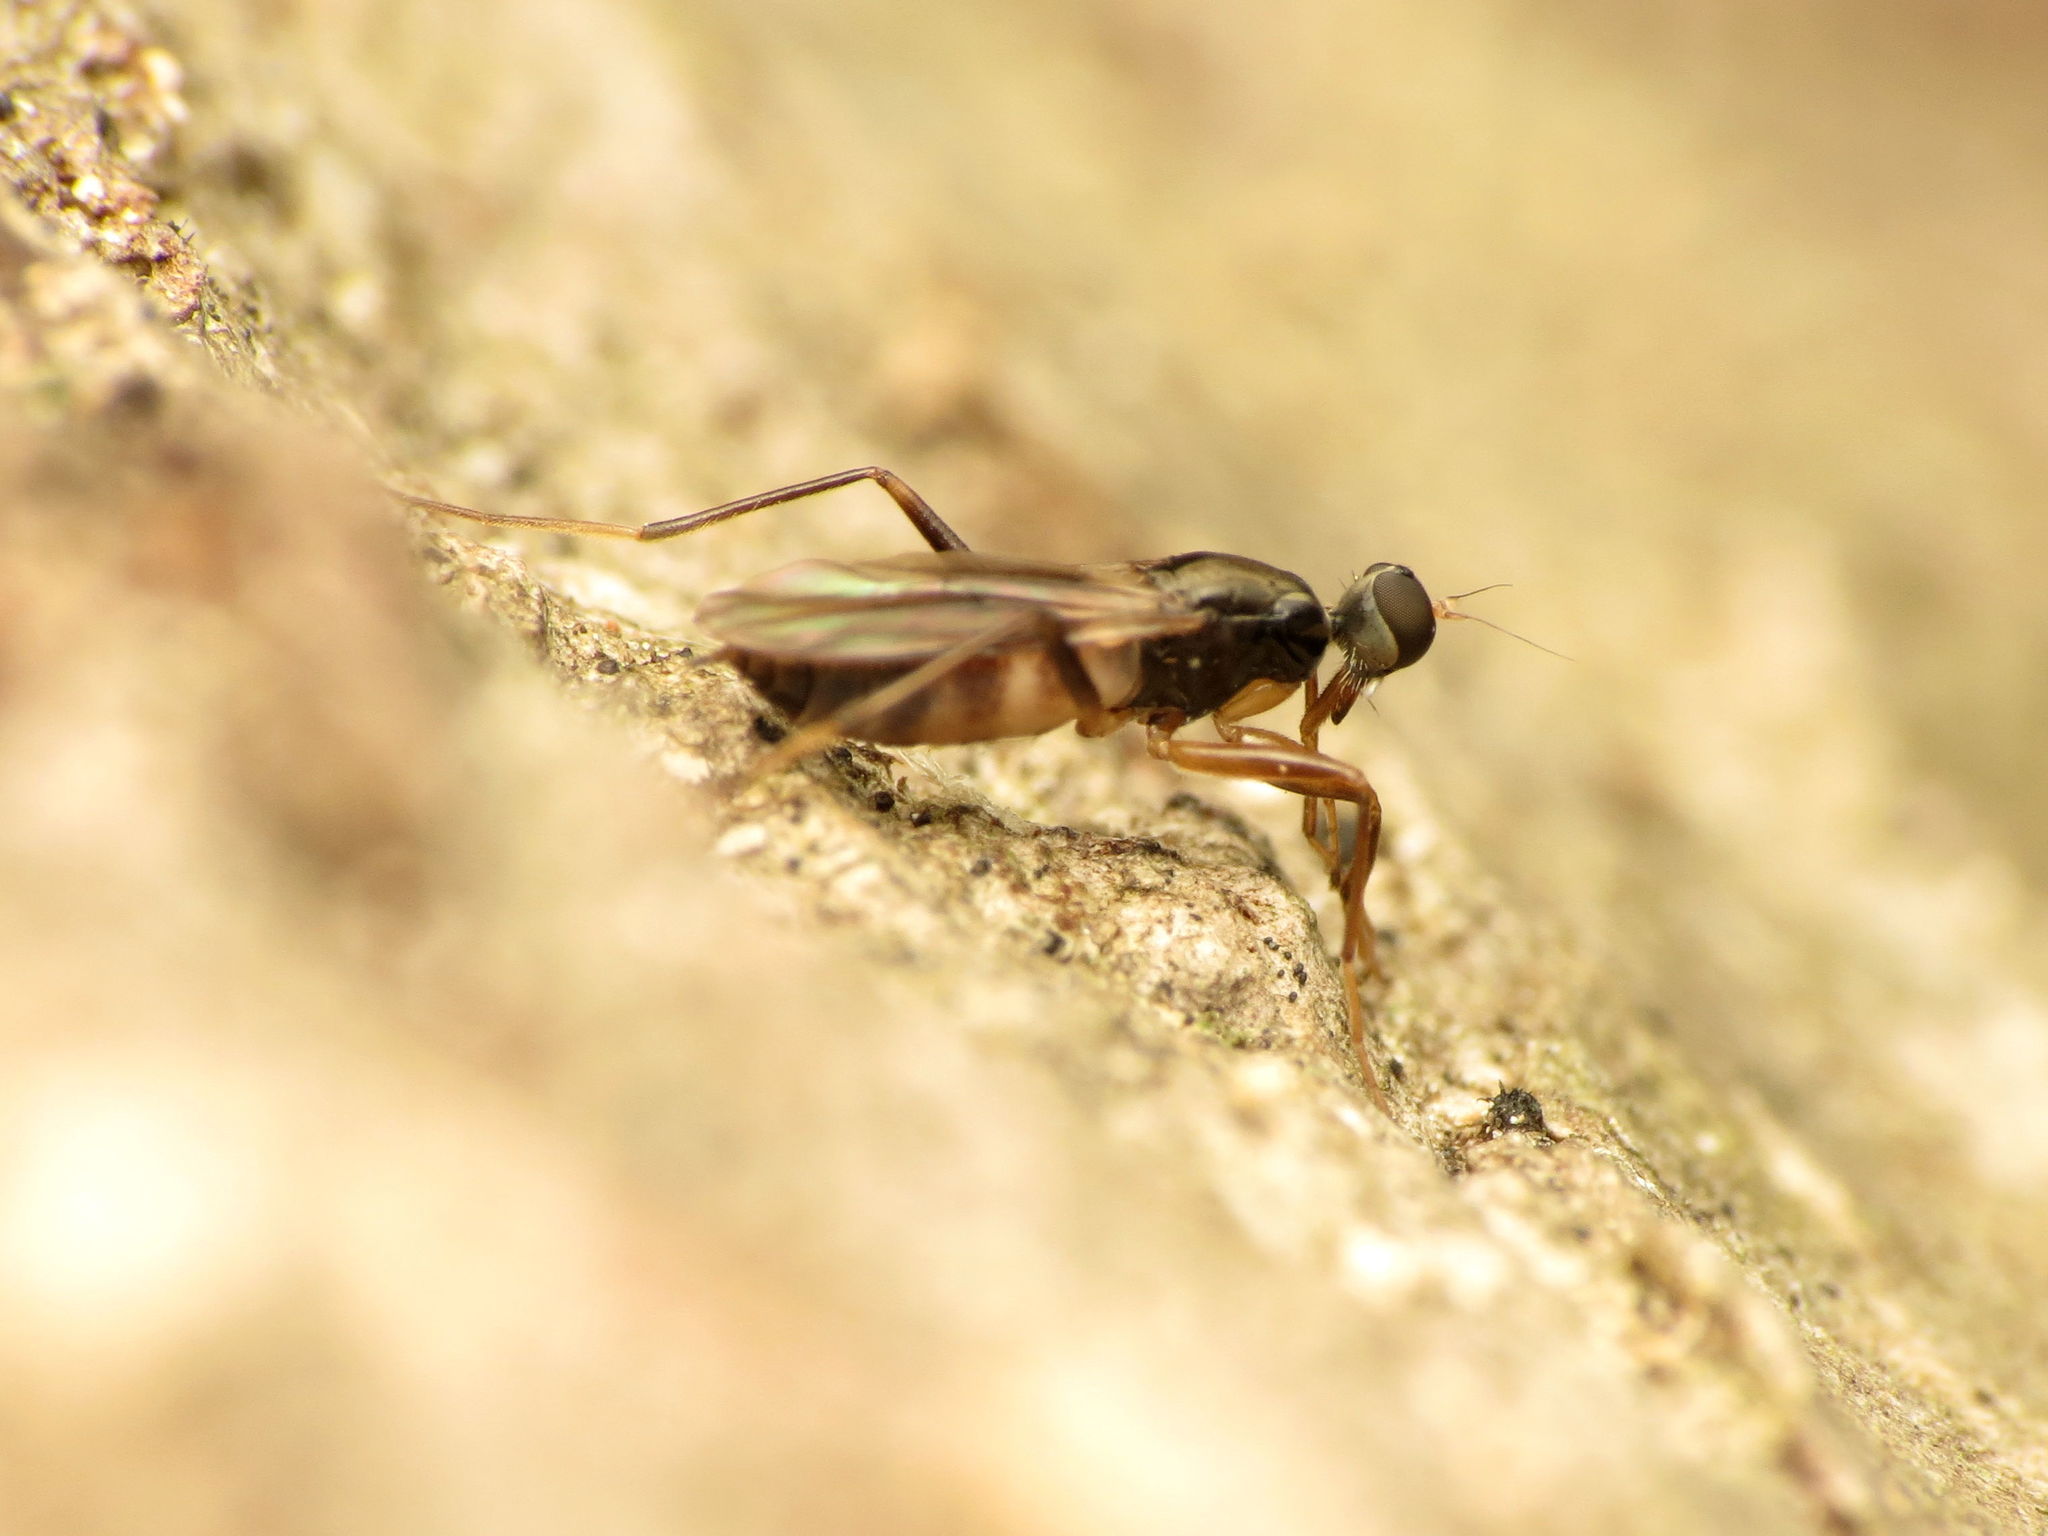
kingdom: Animalia
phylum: Arthropoda
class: Insecta
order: Diptera
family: Hybotidae
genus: Tachypeza
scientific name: Tachypeza
